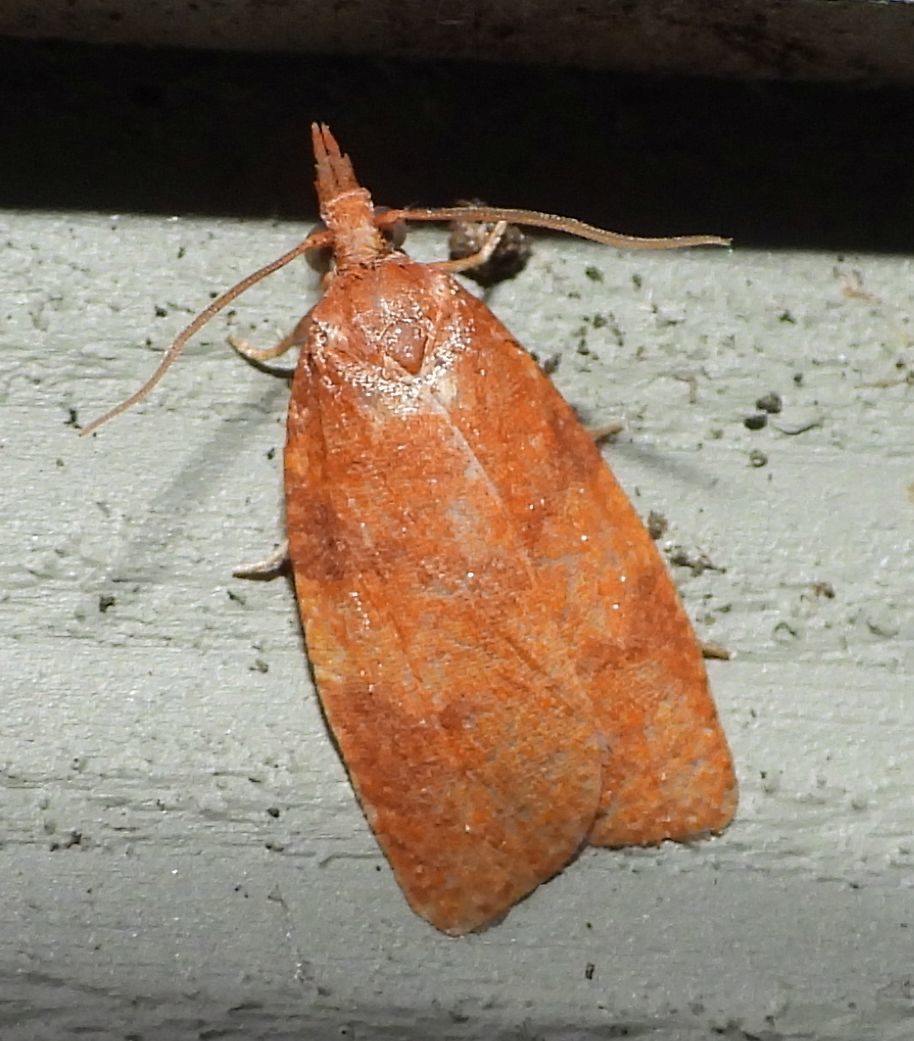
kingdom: Animalia
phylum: Arthropoda
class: Insecta
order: Lepidoptera
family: Tortricidae
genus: Cenopis
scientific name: Cenopis directana
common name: Chokecherry leafroller moth
